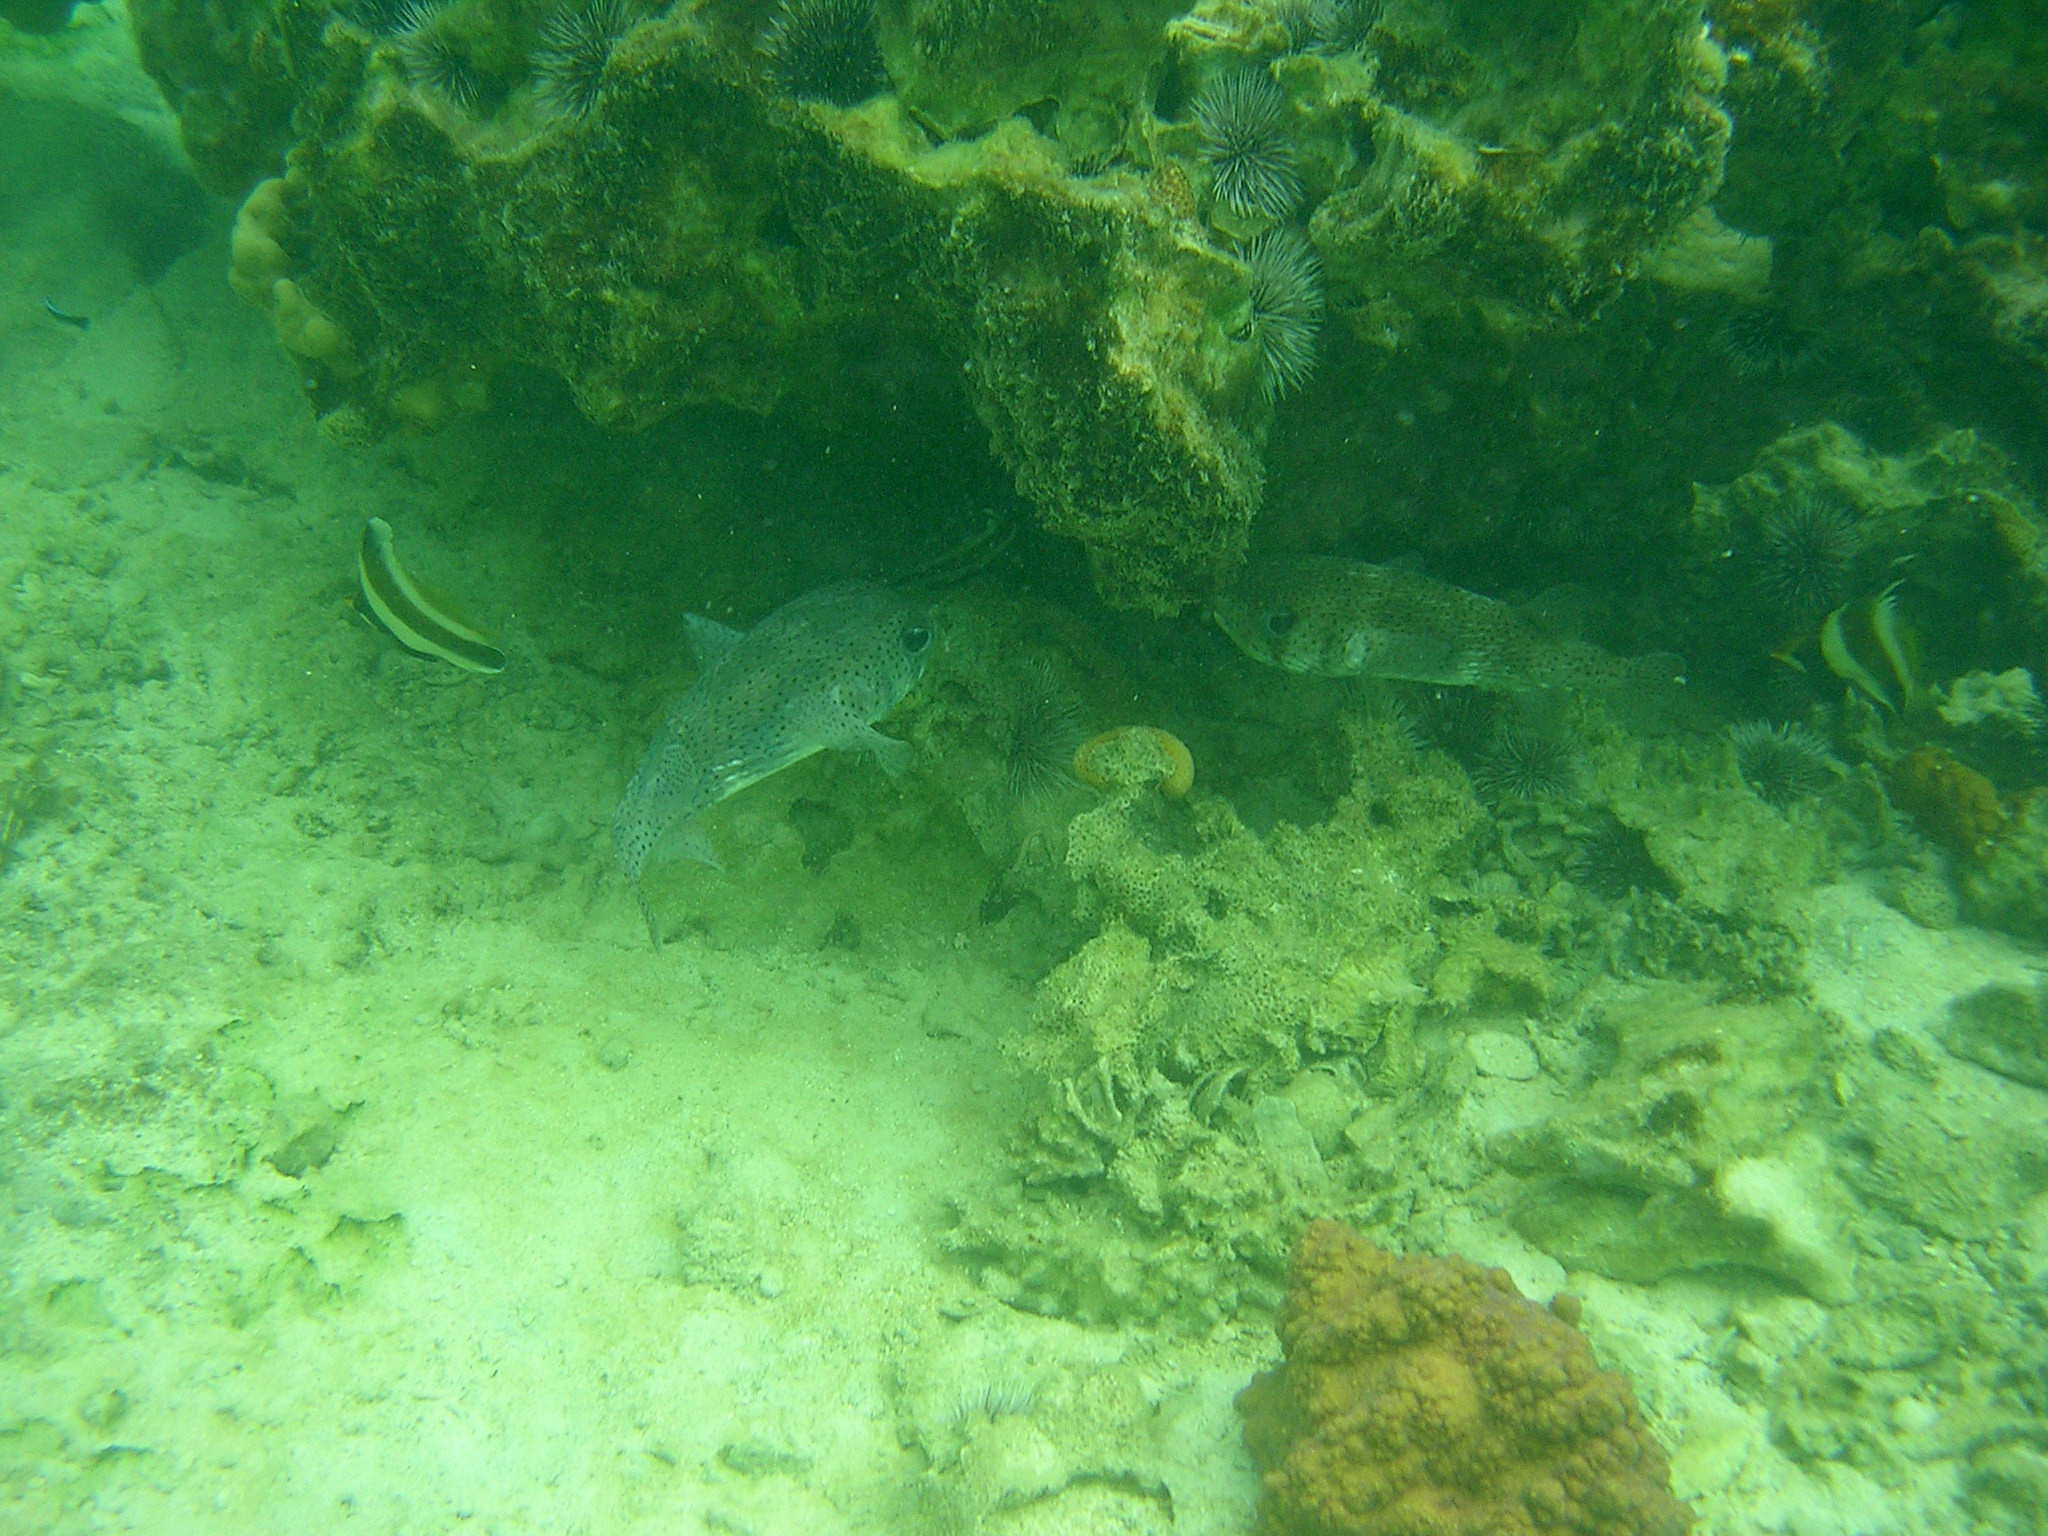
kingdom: Animalia
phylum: Chordata
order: Tetraodontiformes
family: Diodontidae
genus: Diodon
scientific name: Diodon hystrix
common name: Giant porcupinefish
